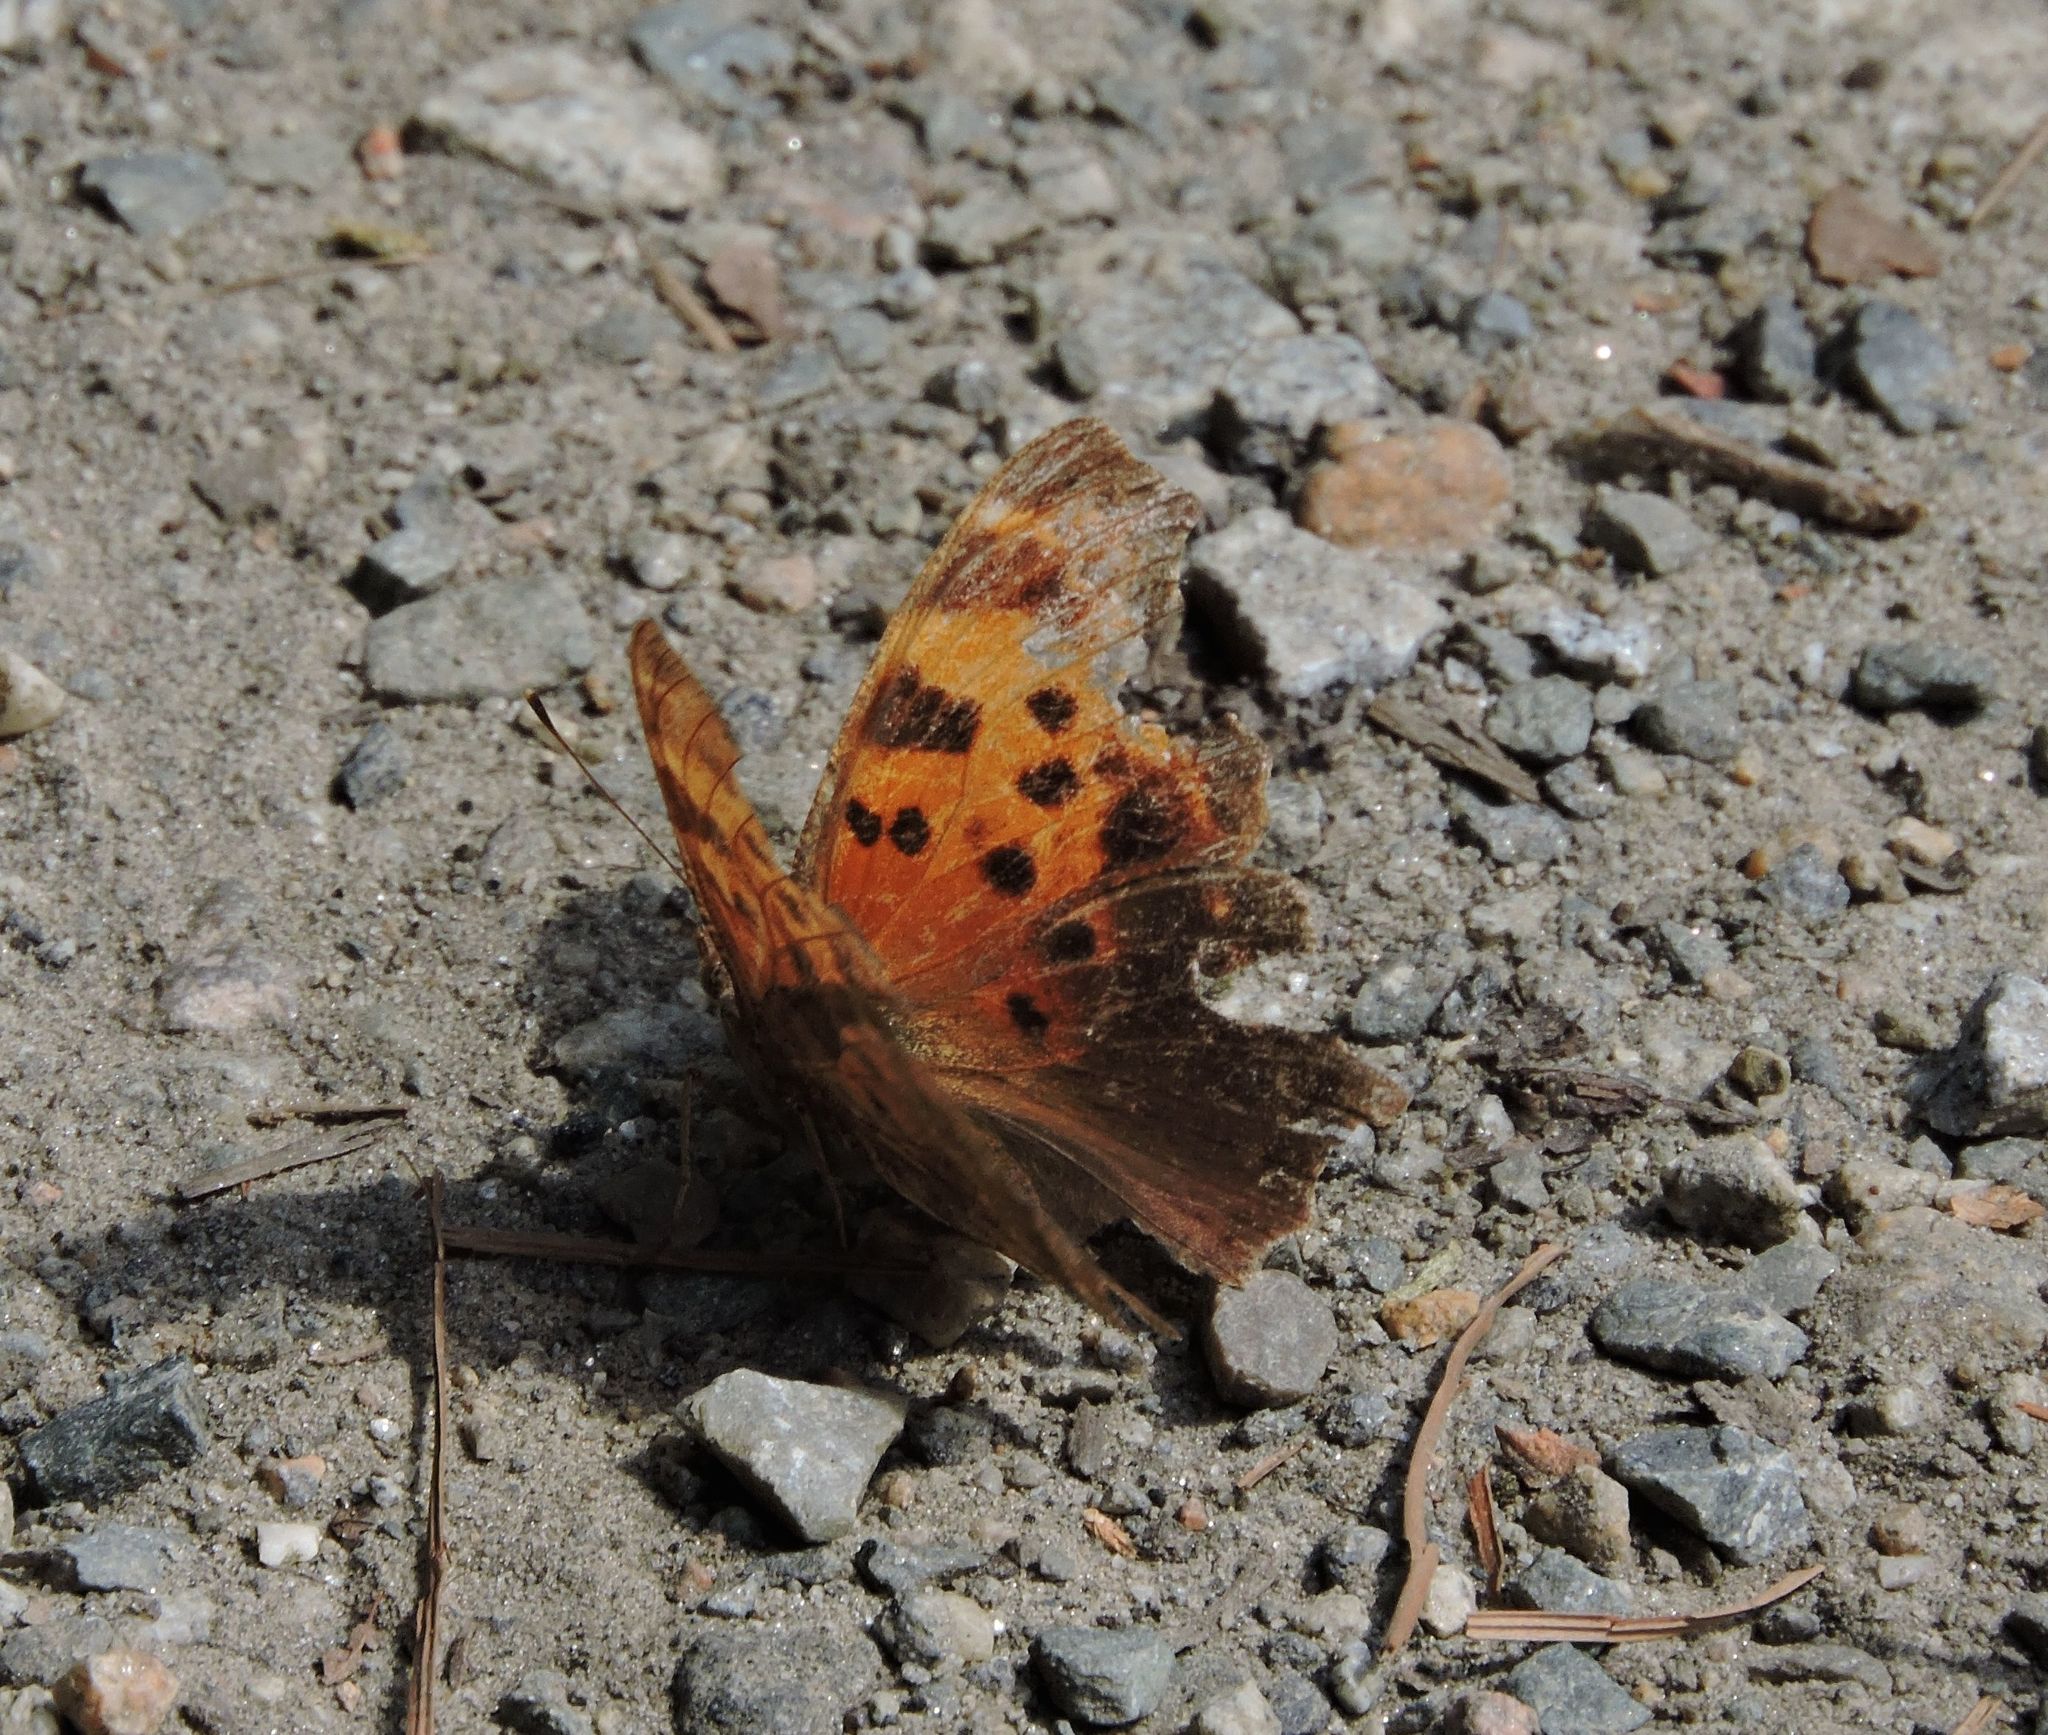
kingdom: Animalia
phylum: Arthropoda
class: Insecta
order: Lepidoptera
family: Nymphalidae
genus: Polygonia
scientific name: Polygonia comma
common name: Eastern comma
